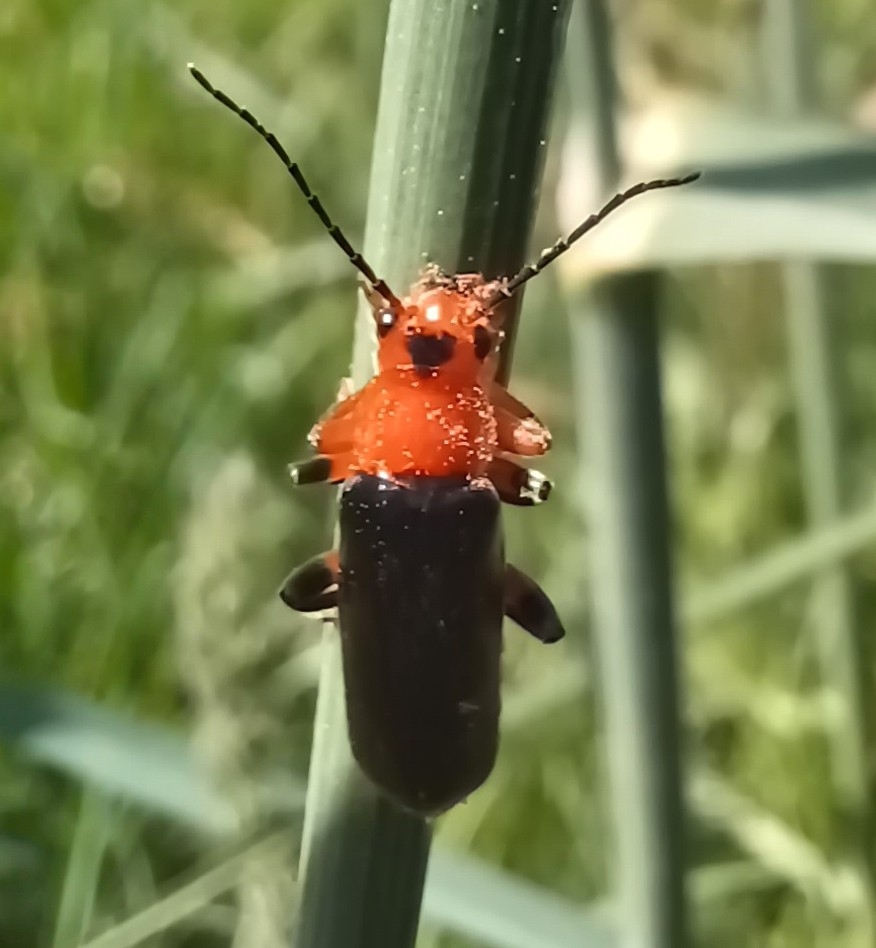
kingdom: Animalia
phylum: Arthropoda
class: Insecta
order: Coleoptera
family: Cantharidae
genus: Cantharis
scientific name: Cantharis livida
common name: Livid soldier beetle
